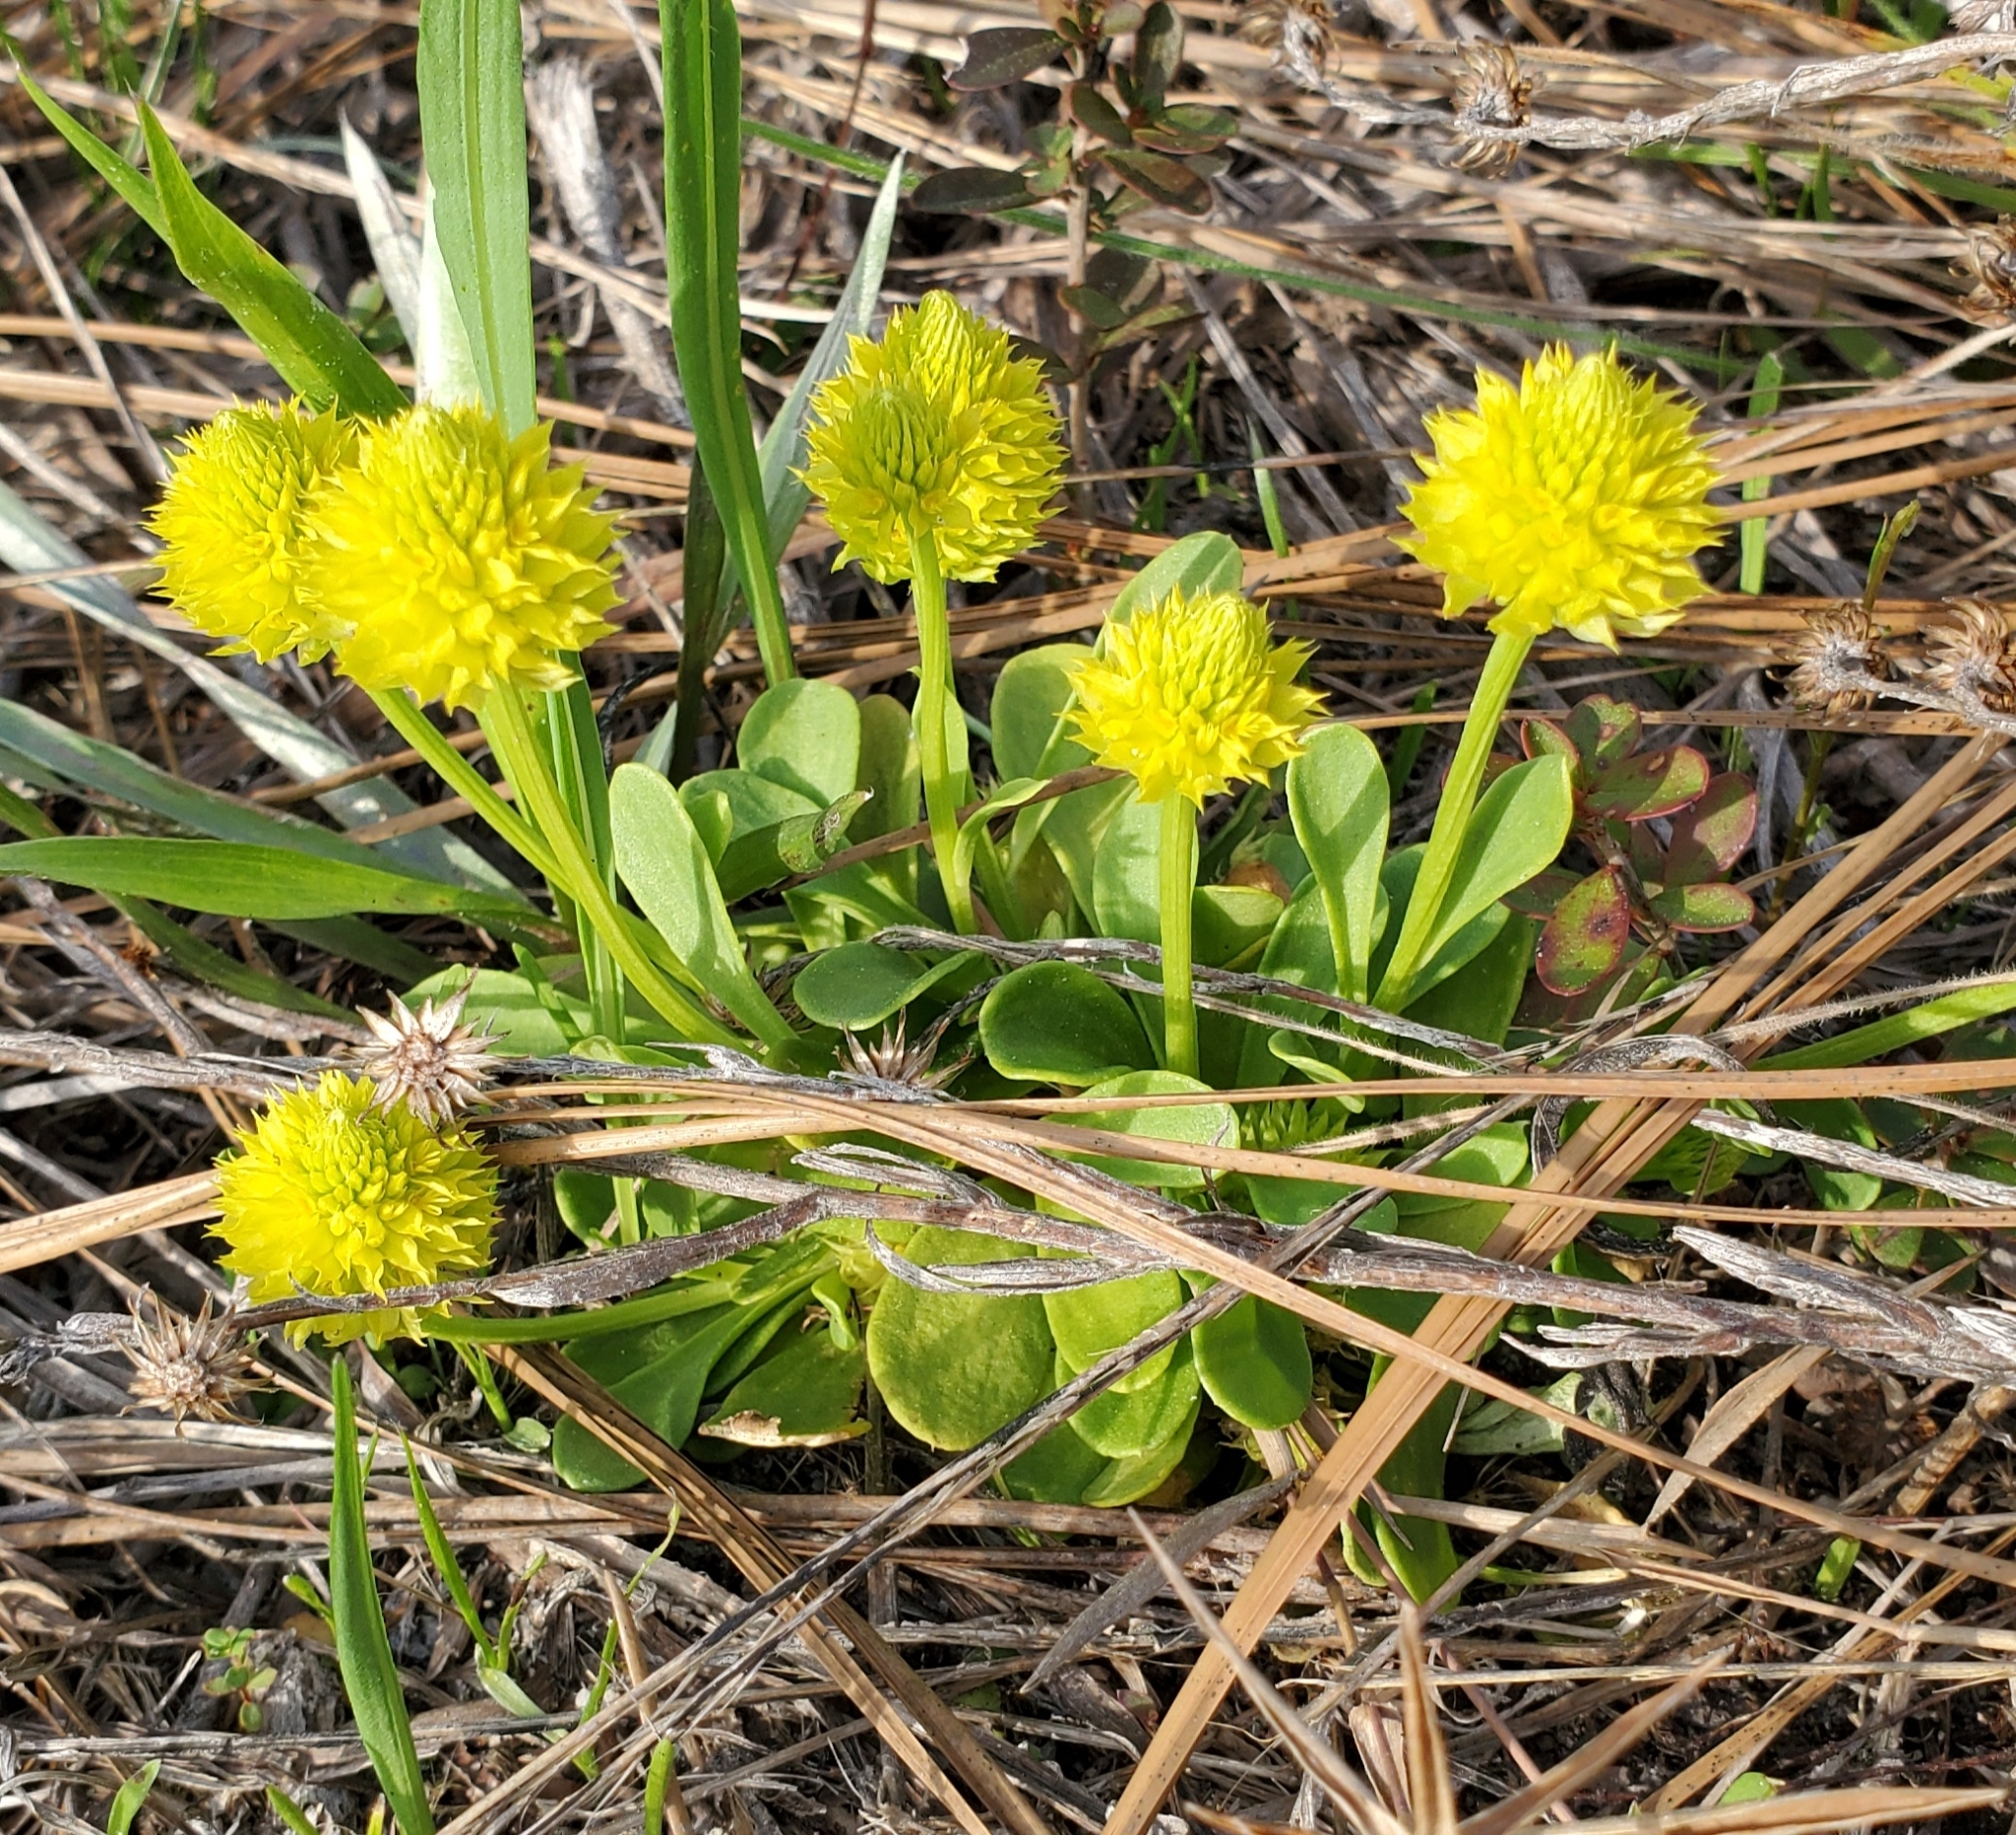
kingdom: Plantae
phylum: Tracheophyta
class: Magnoliopsida
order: Fabales
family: Polygalaceae
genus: Polygala
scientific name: Polygala nana
